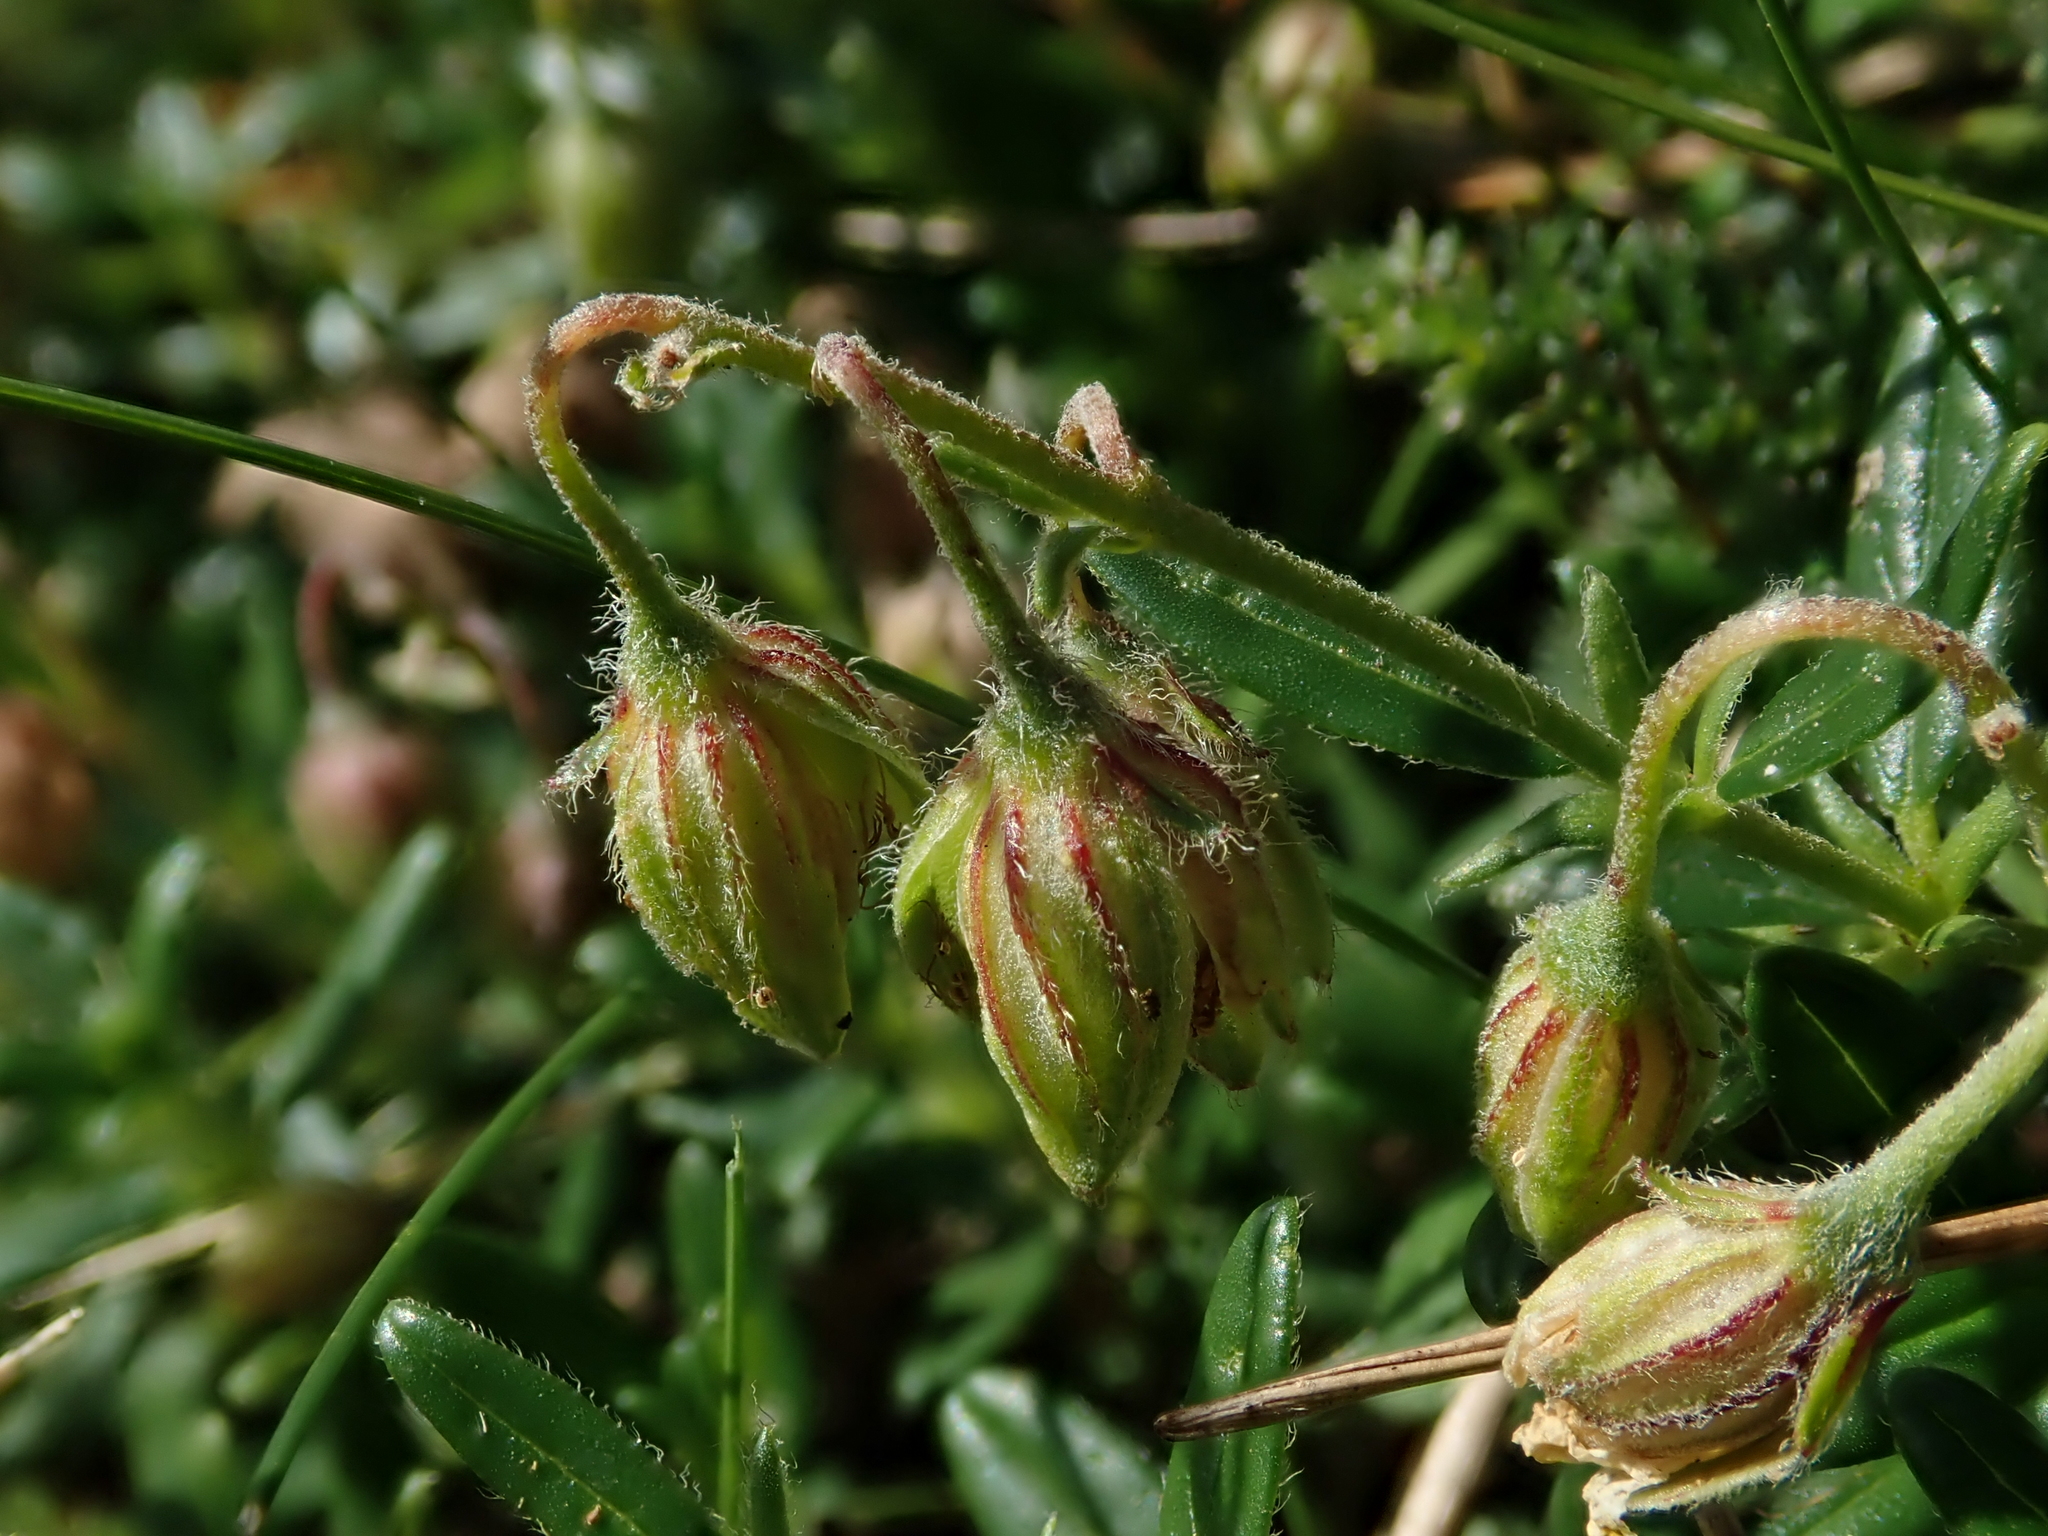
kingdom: Plantae
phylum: Tracheophyta
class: Magnoliopsida
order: Malvales
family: Cistaceae
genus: Helianthemum
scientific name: Helianthemum nummularium
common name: Common rock-rose
